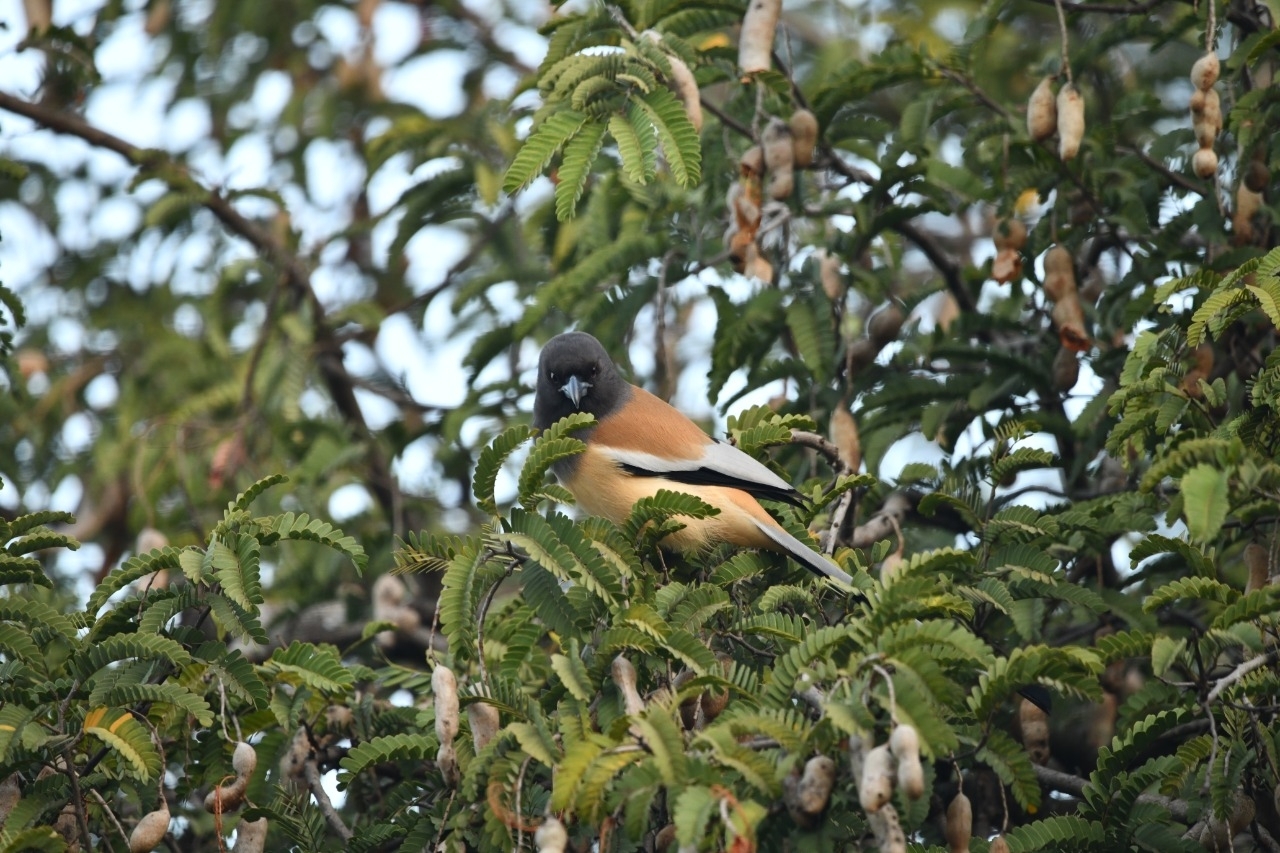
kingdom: Animalia
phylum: Chordata
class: Aves
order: Passeriformes
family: Corvidae
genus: Dendrocitta
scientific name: Dendrocitta vagabunda
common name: Rufous treepie
